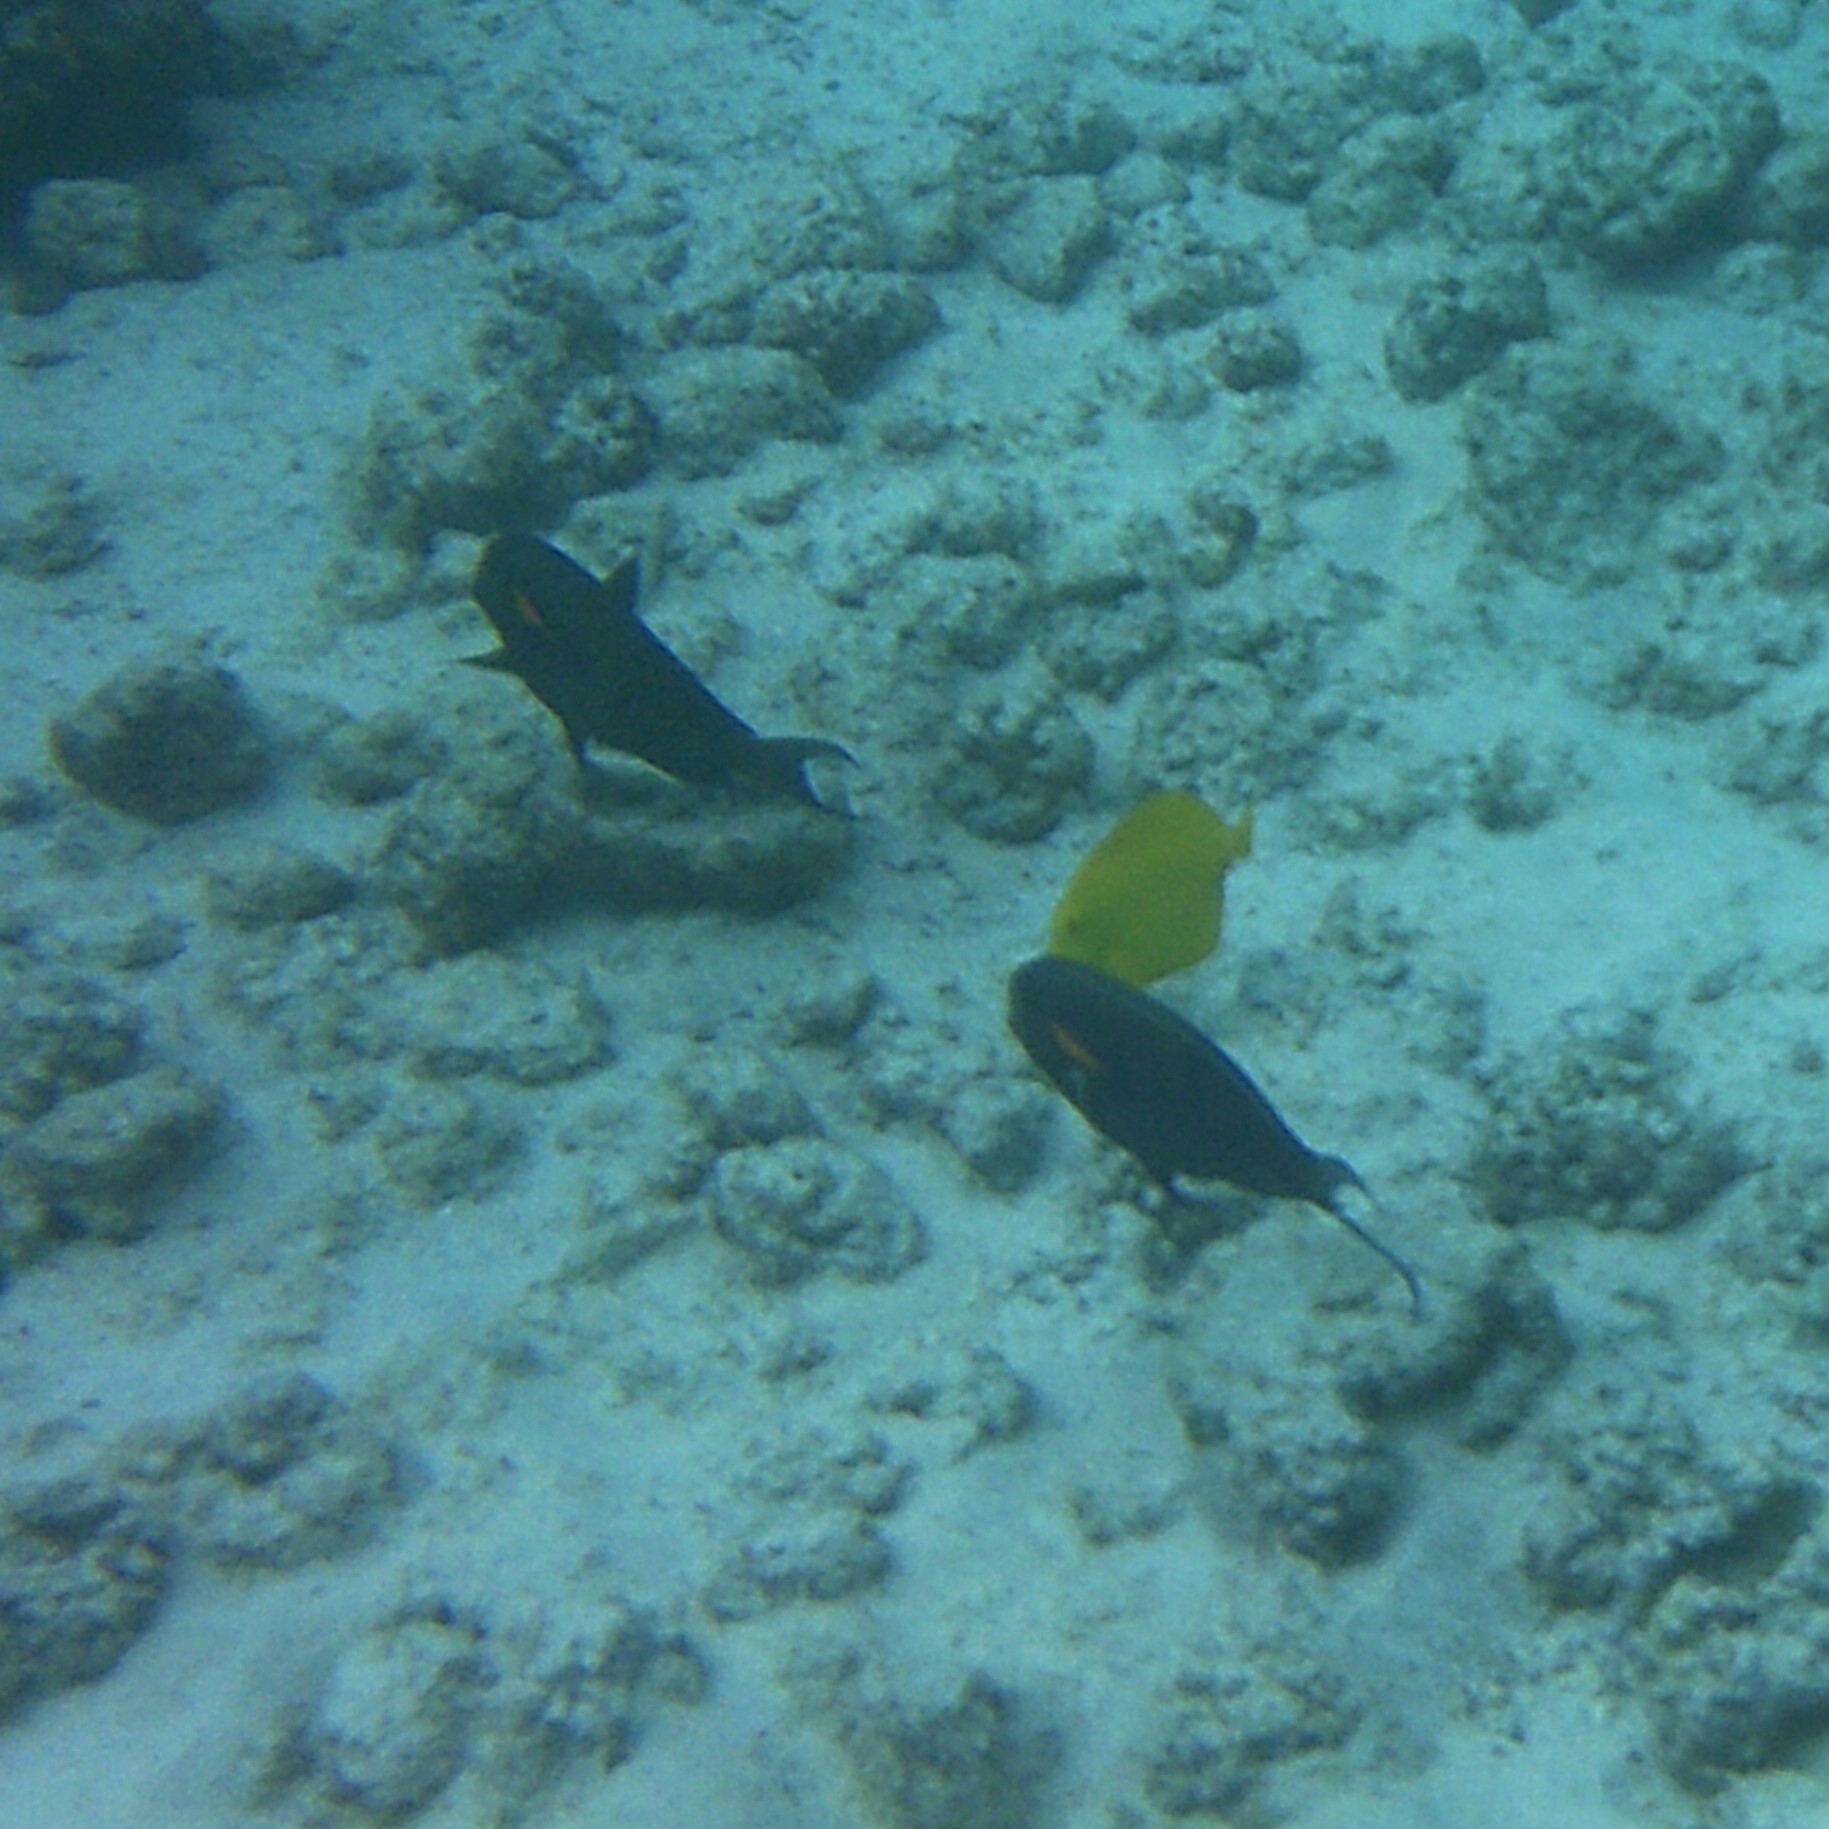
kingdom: Animalia
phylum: Chordata
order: Perciformes
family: Acanthuridae
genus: Acanthurus
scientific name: Acanthurus olivaceus
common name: Gendarme fish
